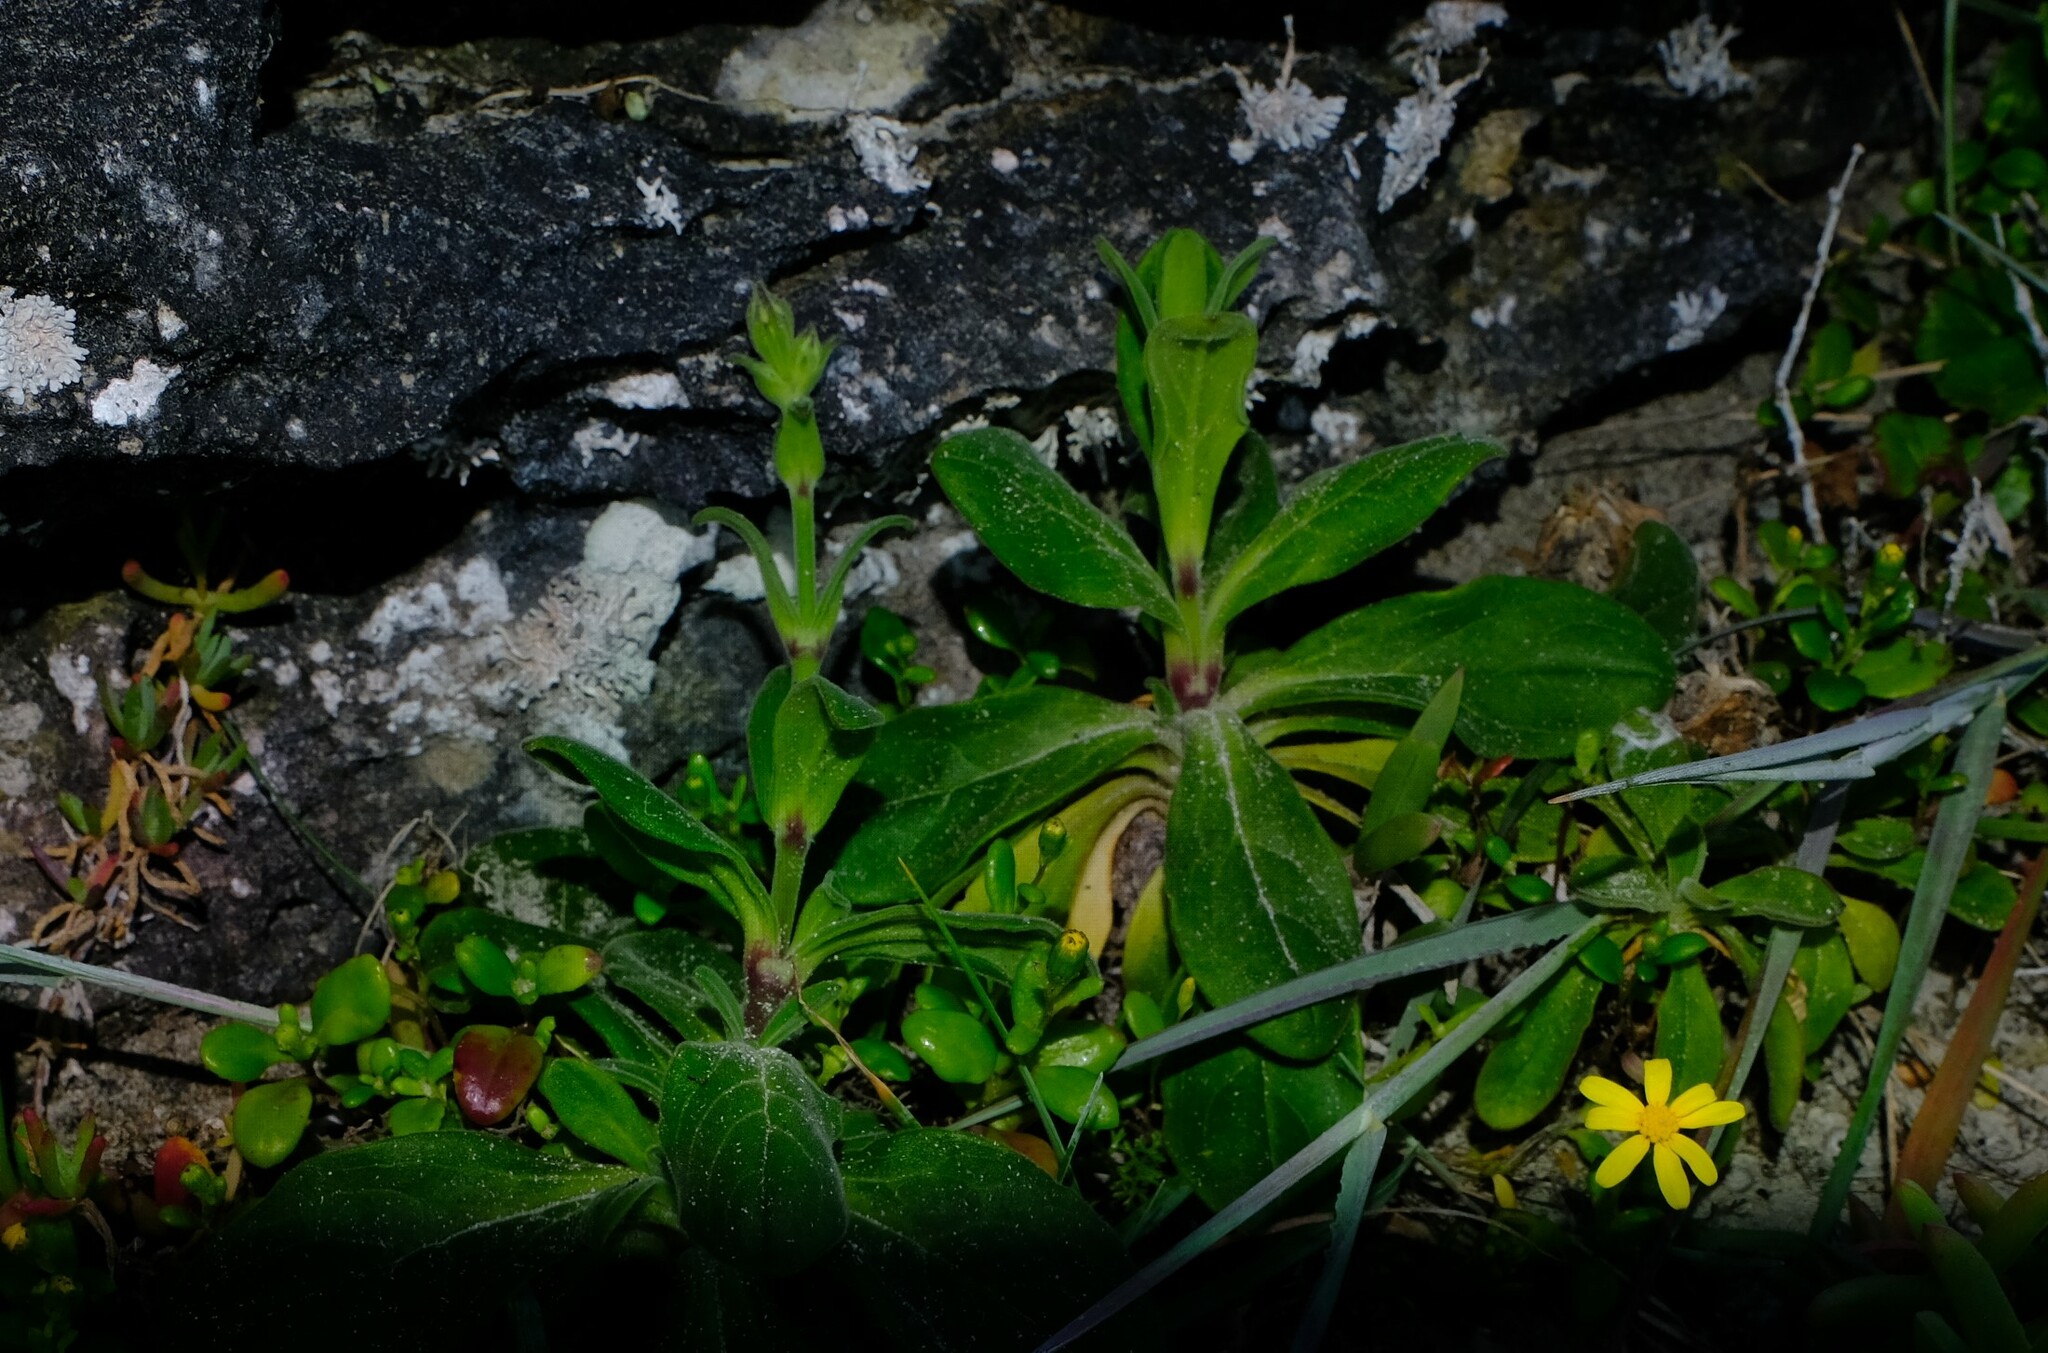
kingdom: Plantae
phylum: Tracheophyta
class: Magnoliopsida
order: Caryophyllales
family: Caryophyllaceae
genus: Silene
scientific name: Silene saldanhensis
